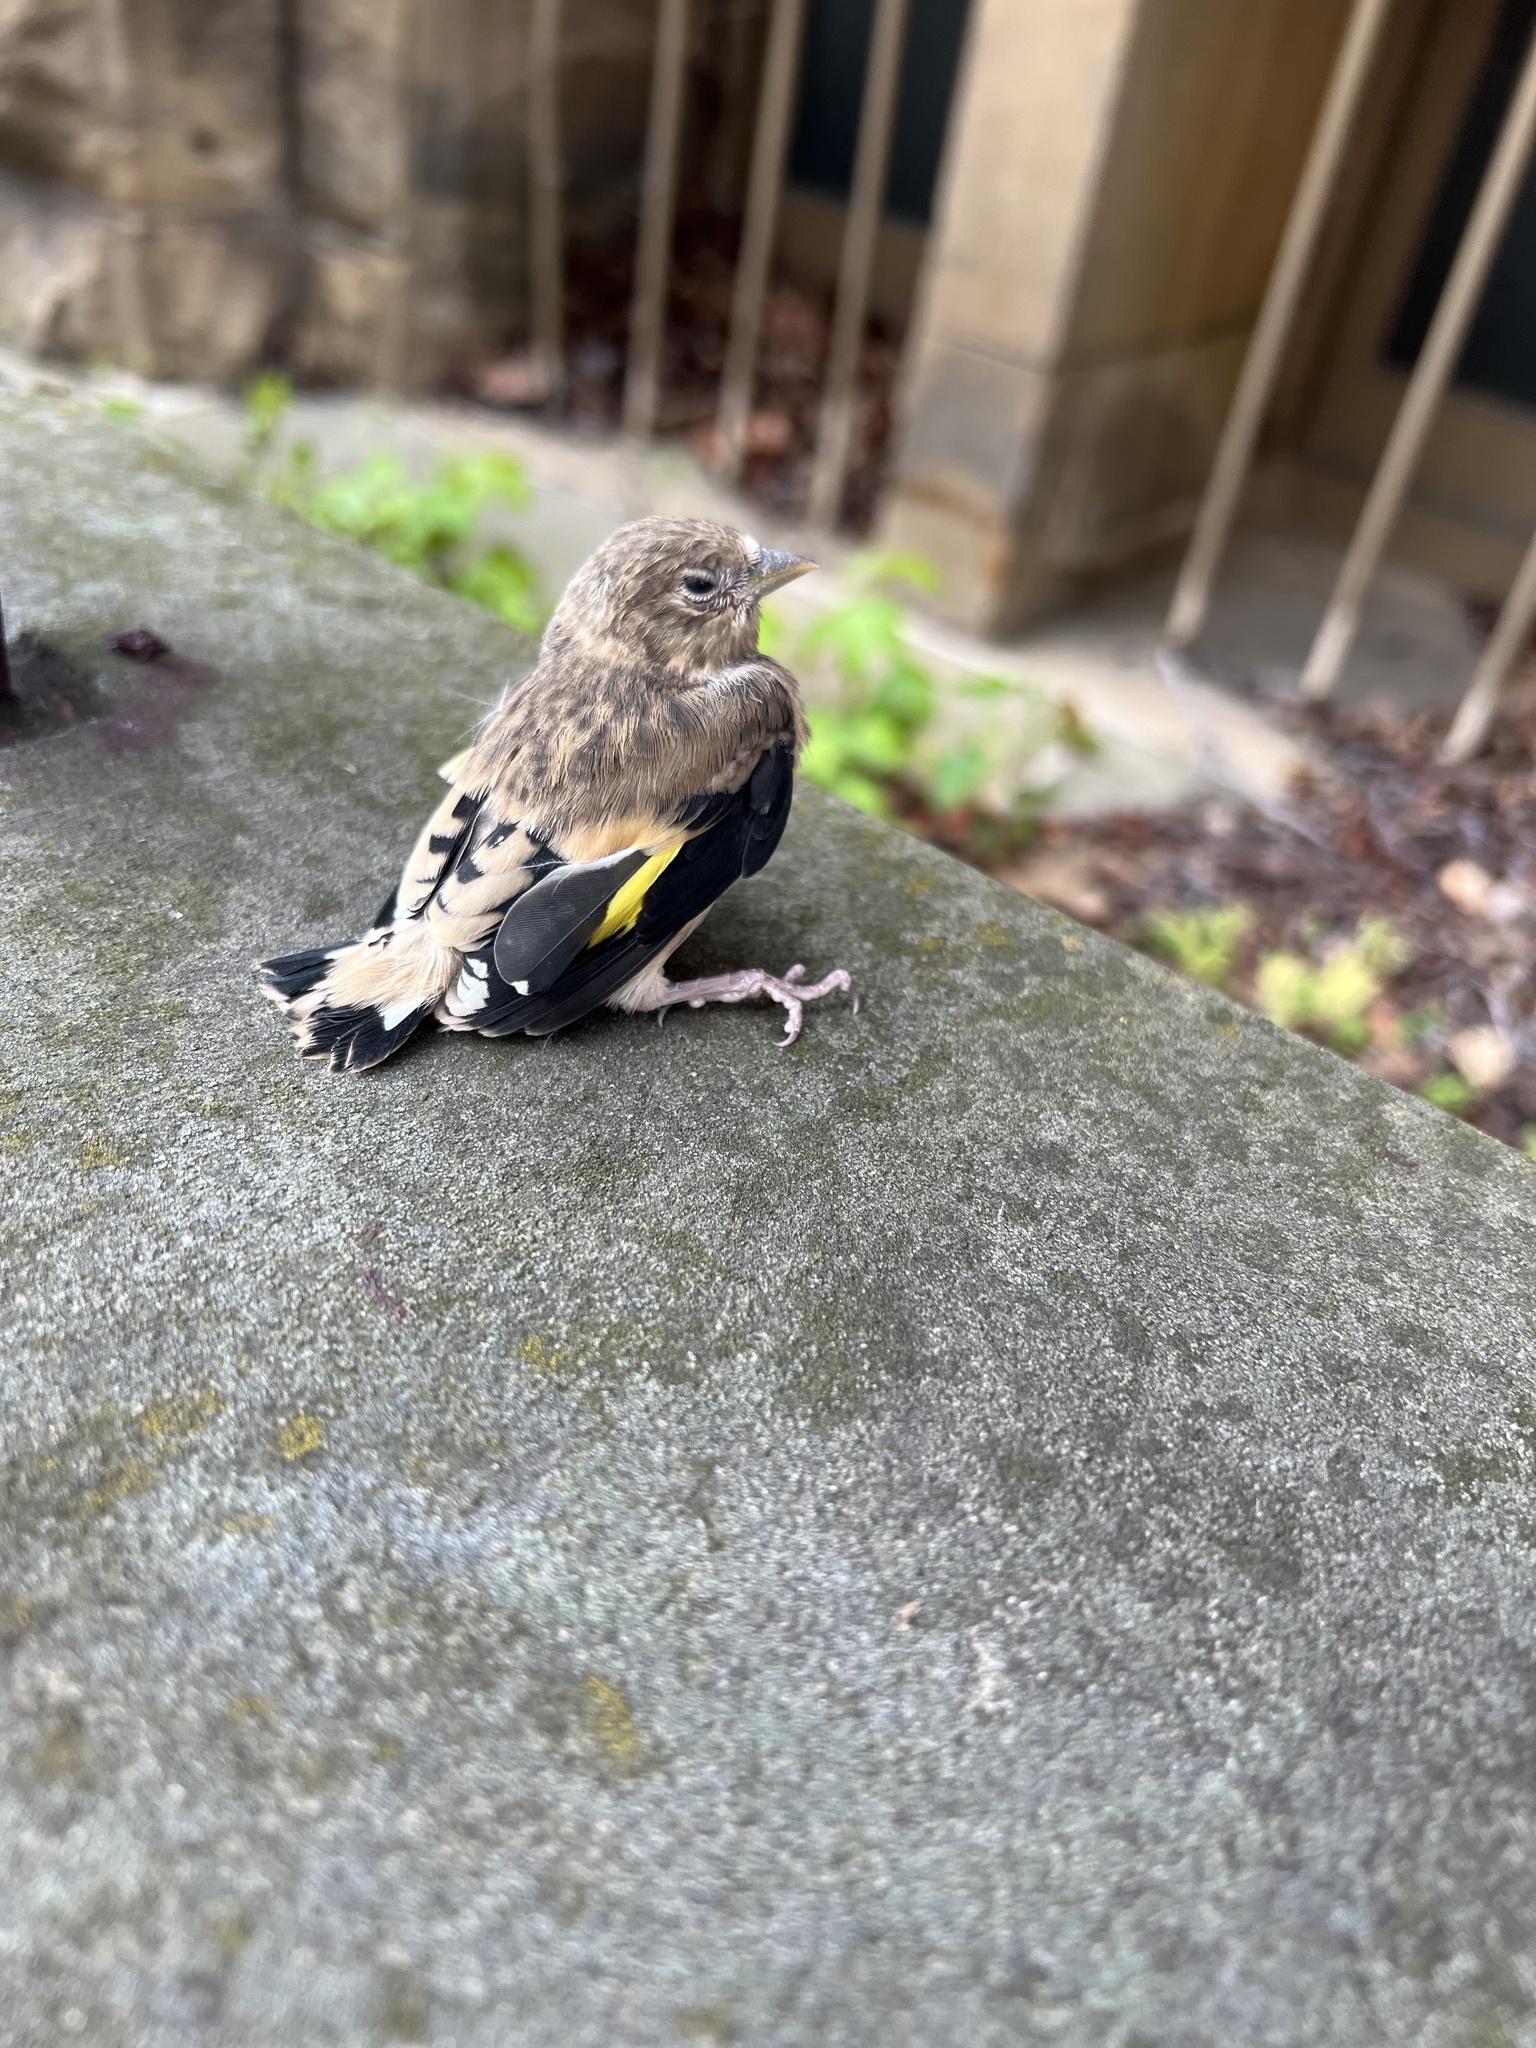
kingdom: Animalia
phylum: Chordata
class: Aves
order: Passeriformes
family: Fringillidae
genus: Carduelis
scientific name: Carduelis carduelis
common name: European goldfinch
